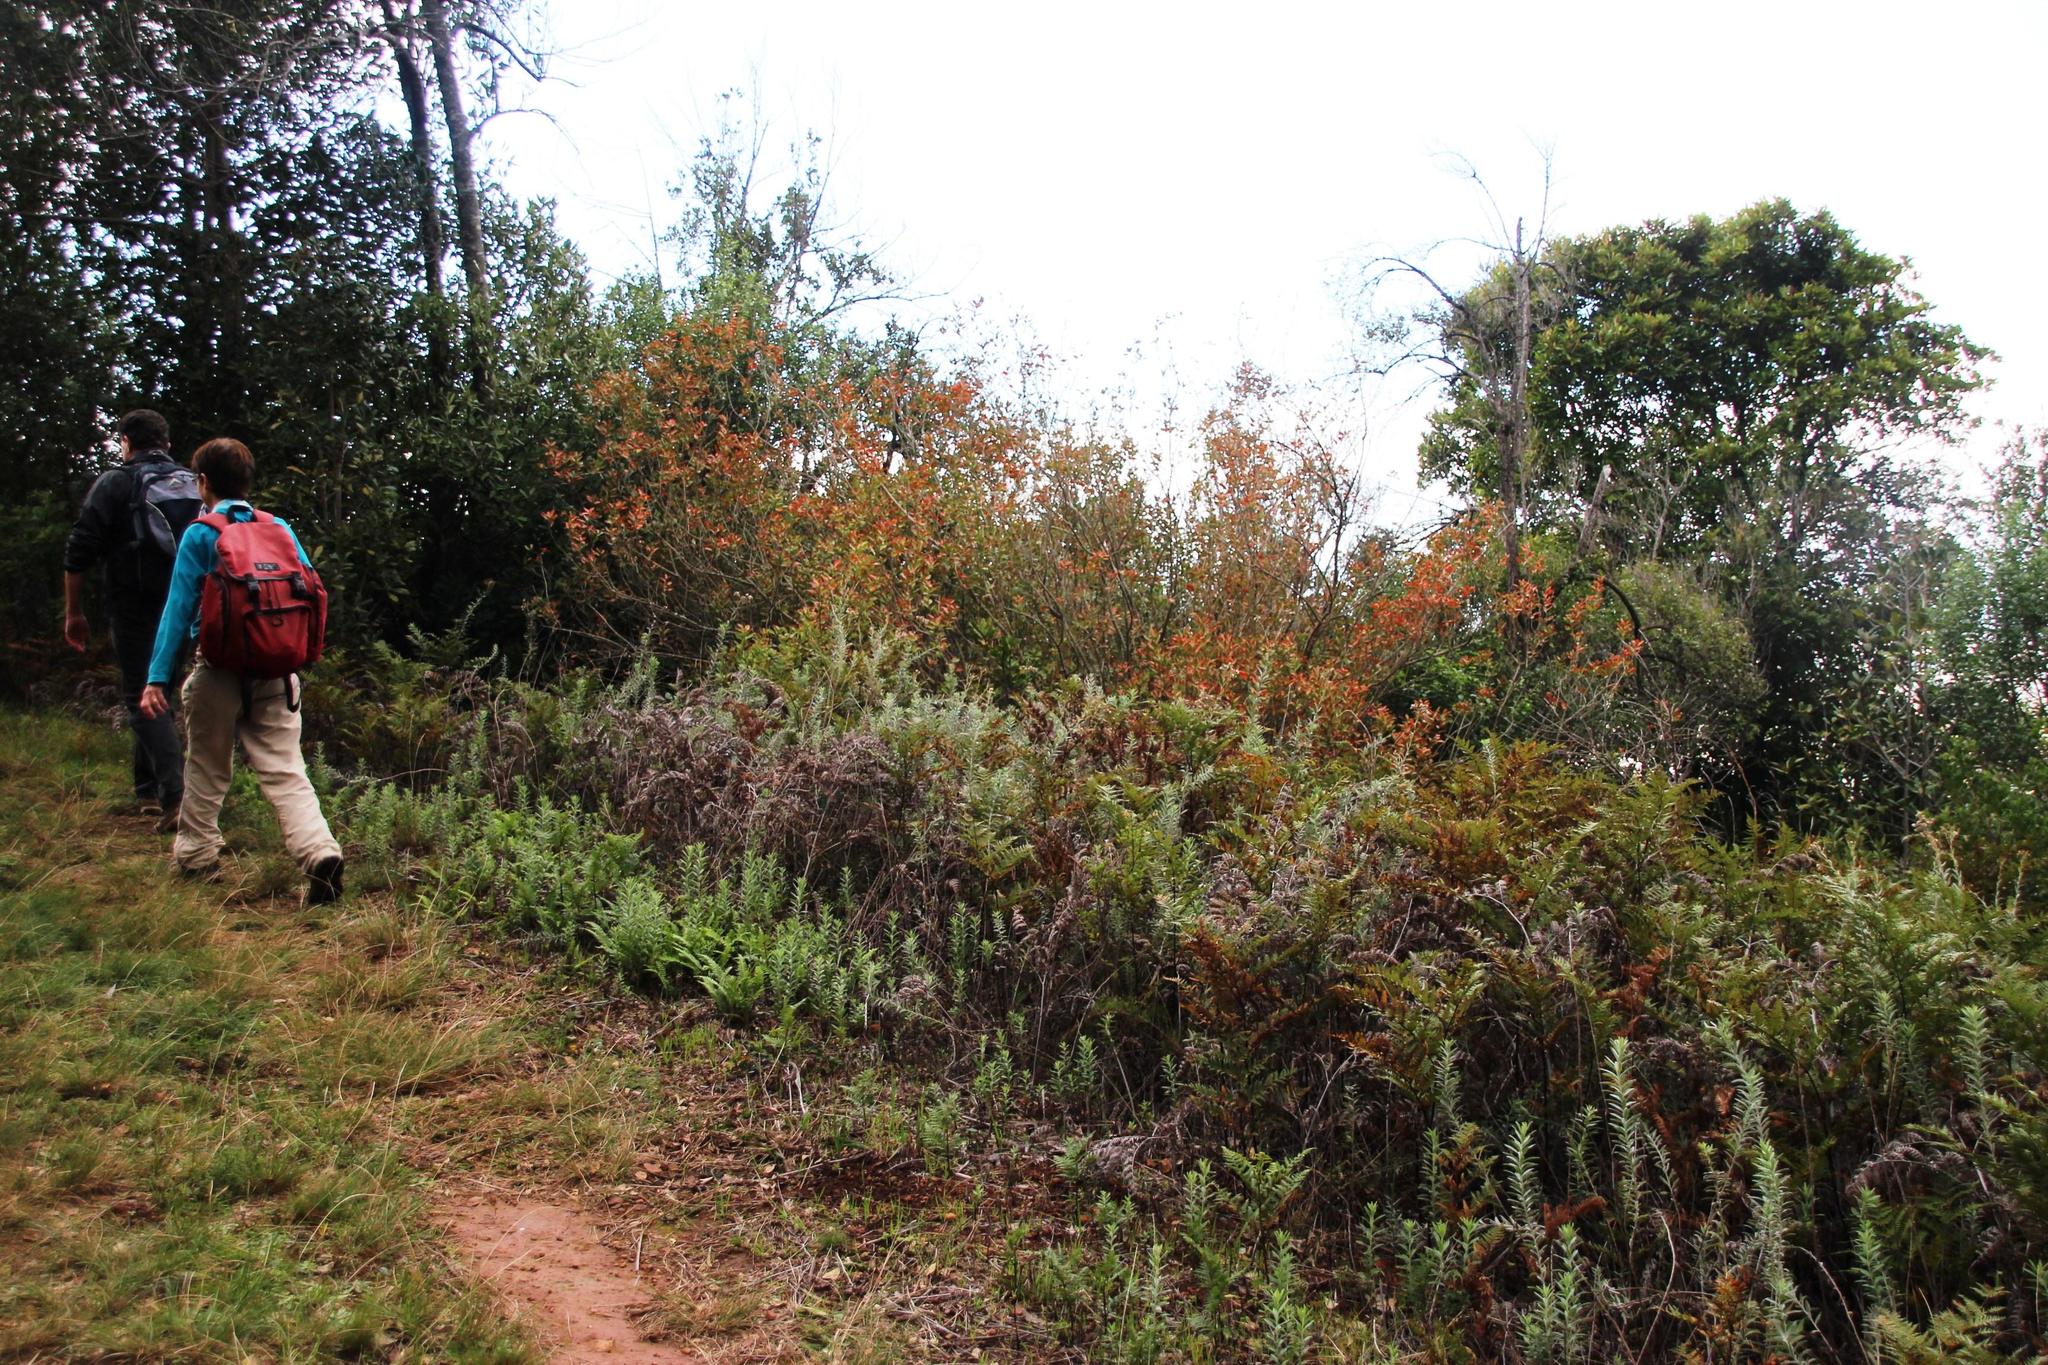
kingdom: Plantae
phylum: Tracheophyta
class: Magnoliopsida
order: Malpighiales
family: Peraceae
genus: Clutia
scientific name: Clutia pulchella
